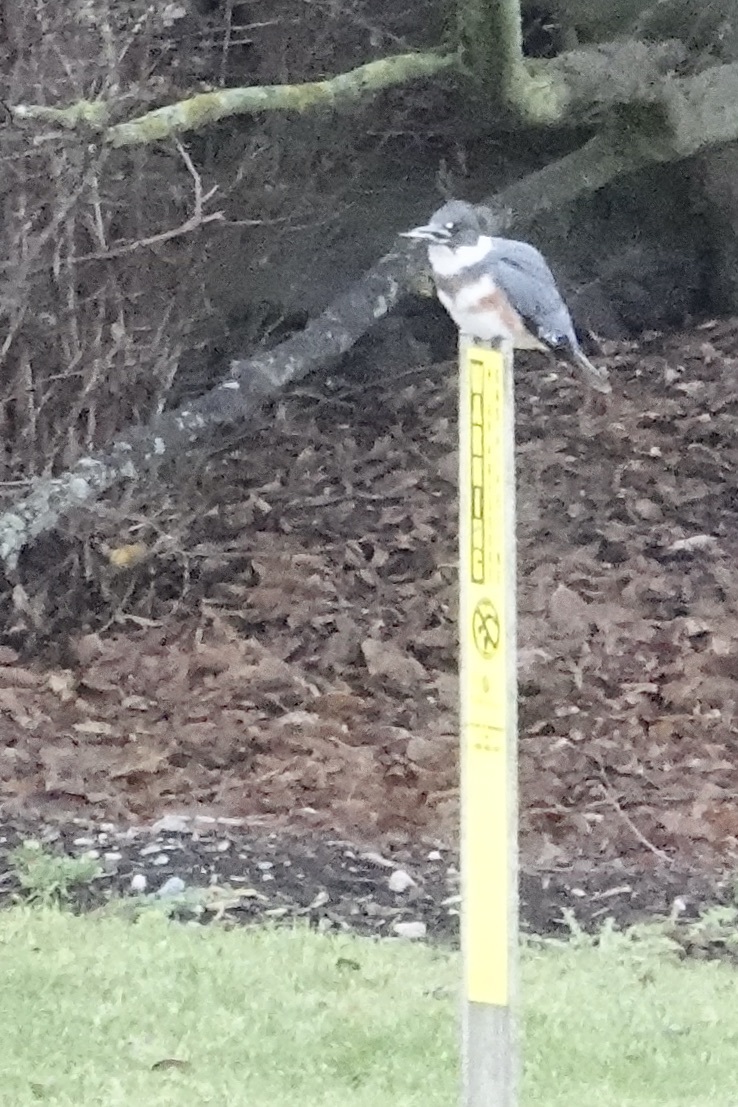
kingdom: Animalia
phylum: Chordata
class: Aves
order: Coraciiformes
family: Alcedinidae
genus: Megaceryle
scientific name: Megaceryle alcyon
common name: Belted kingfisher
